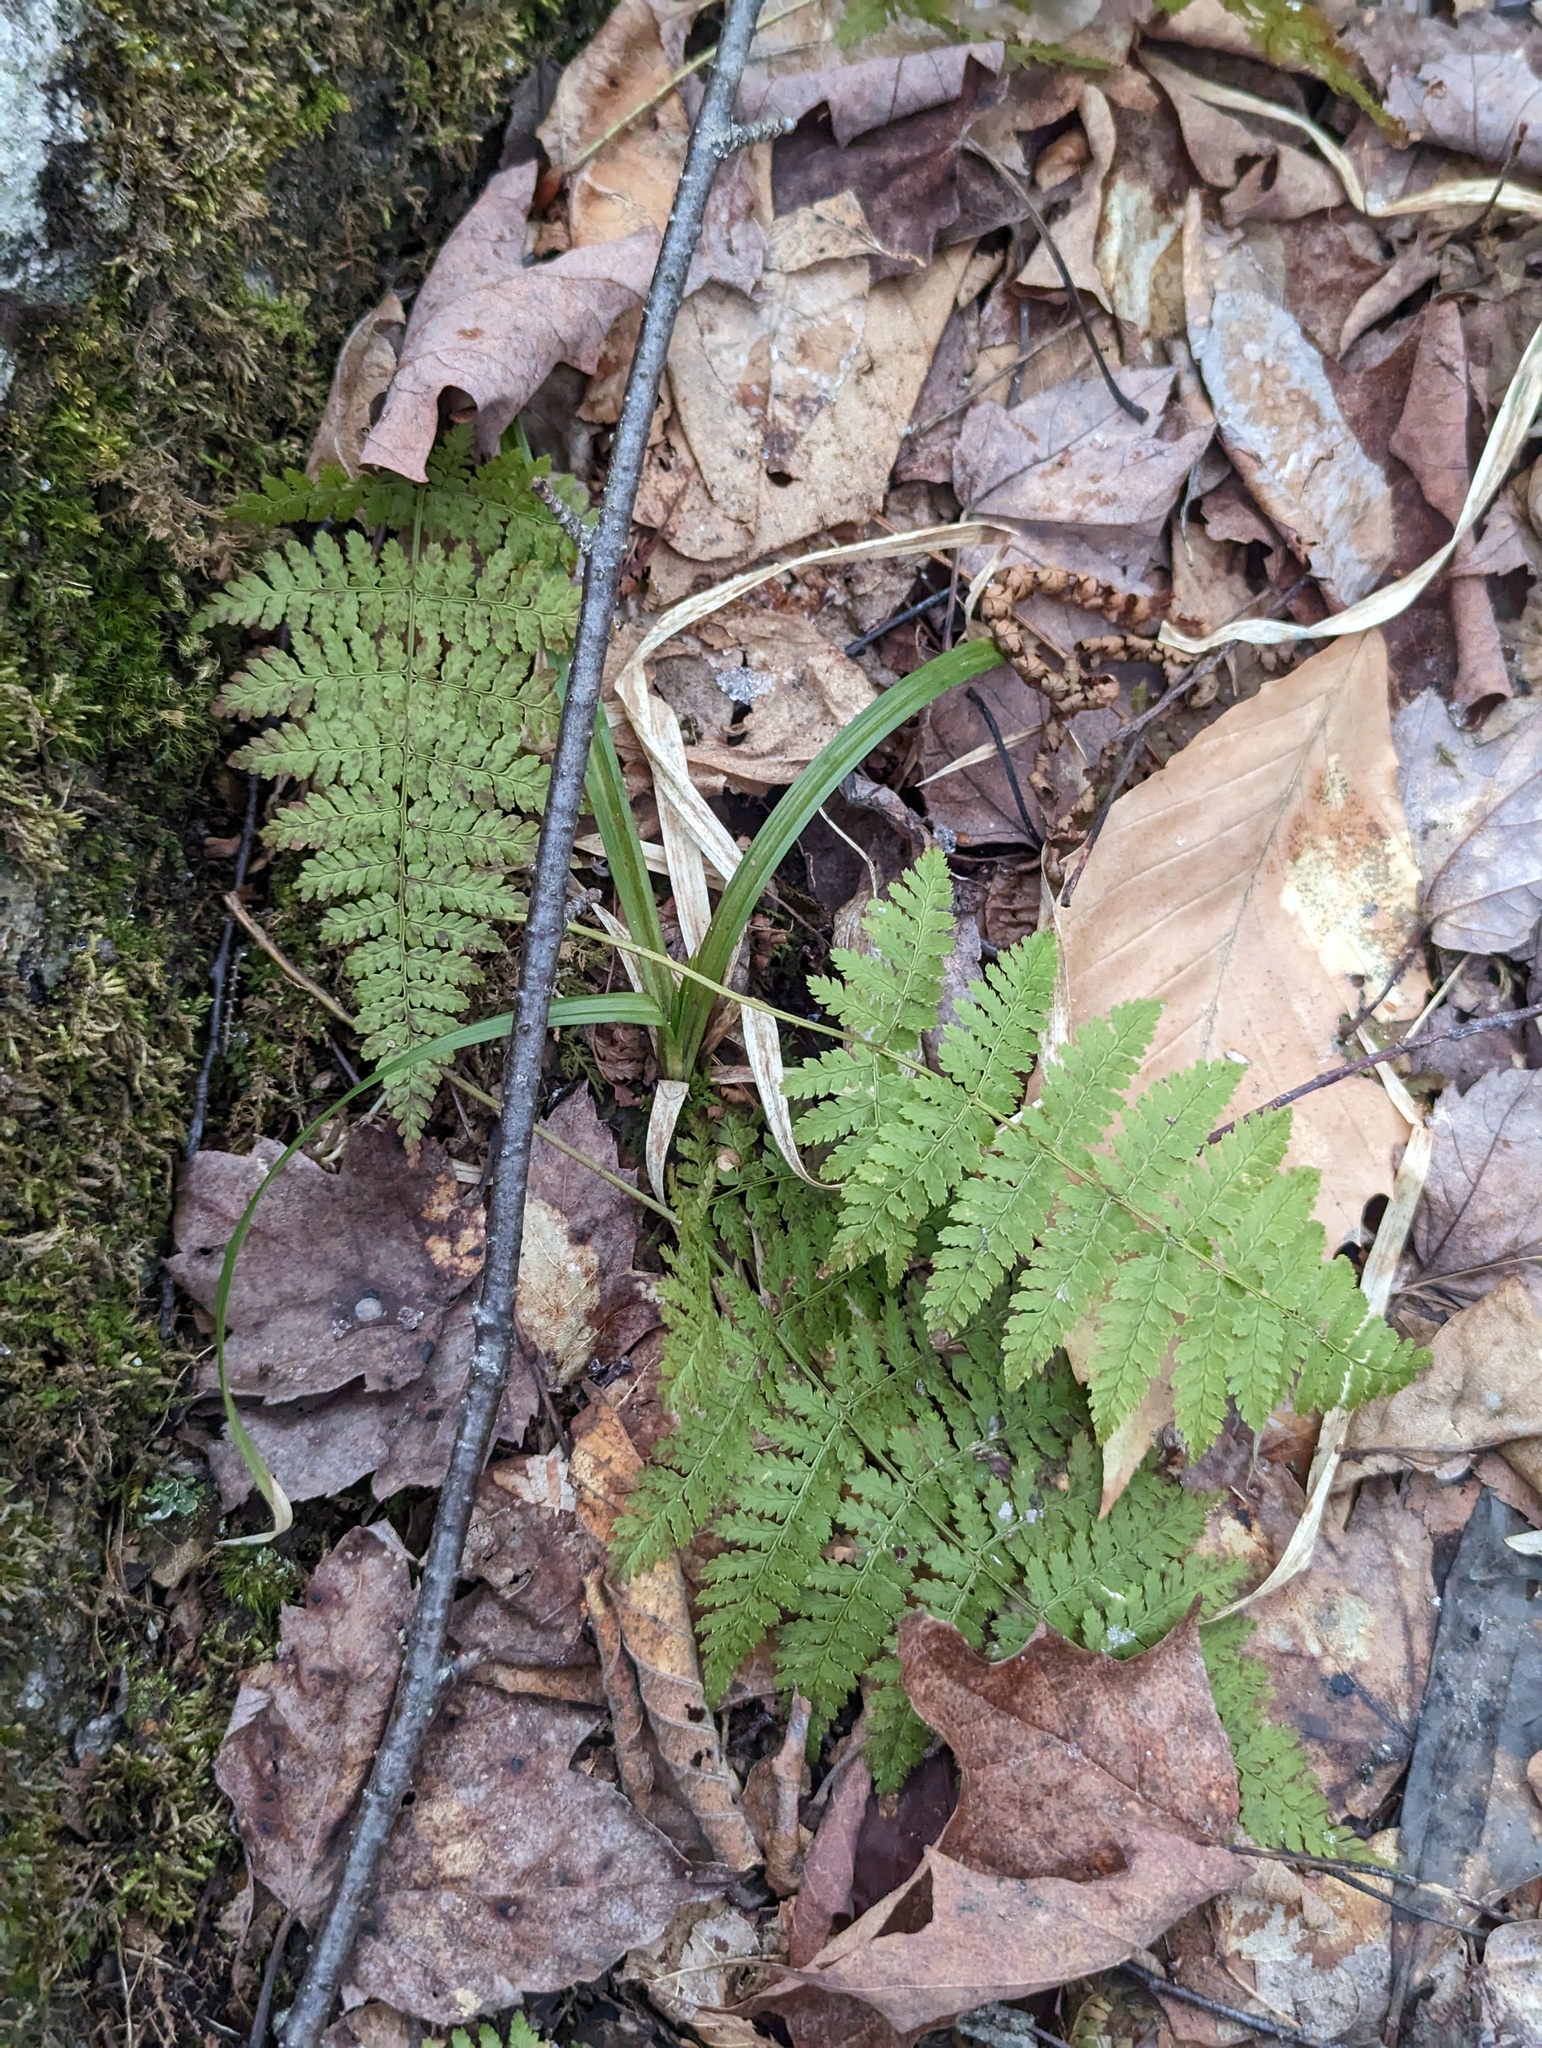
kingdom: Plantae
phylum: Tracheophyta
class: Polypodiopsida
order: Polypodiales
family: Dryopteridaceae
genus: Dryopteris
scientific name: Dryopteris intermedia
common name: Evergreen wood fern
